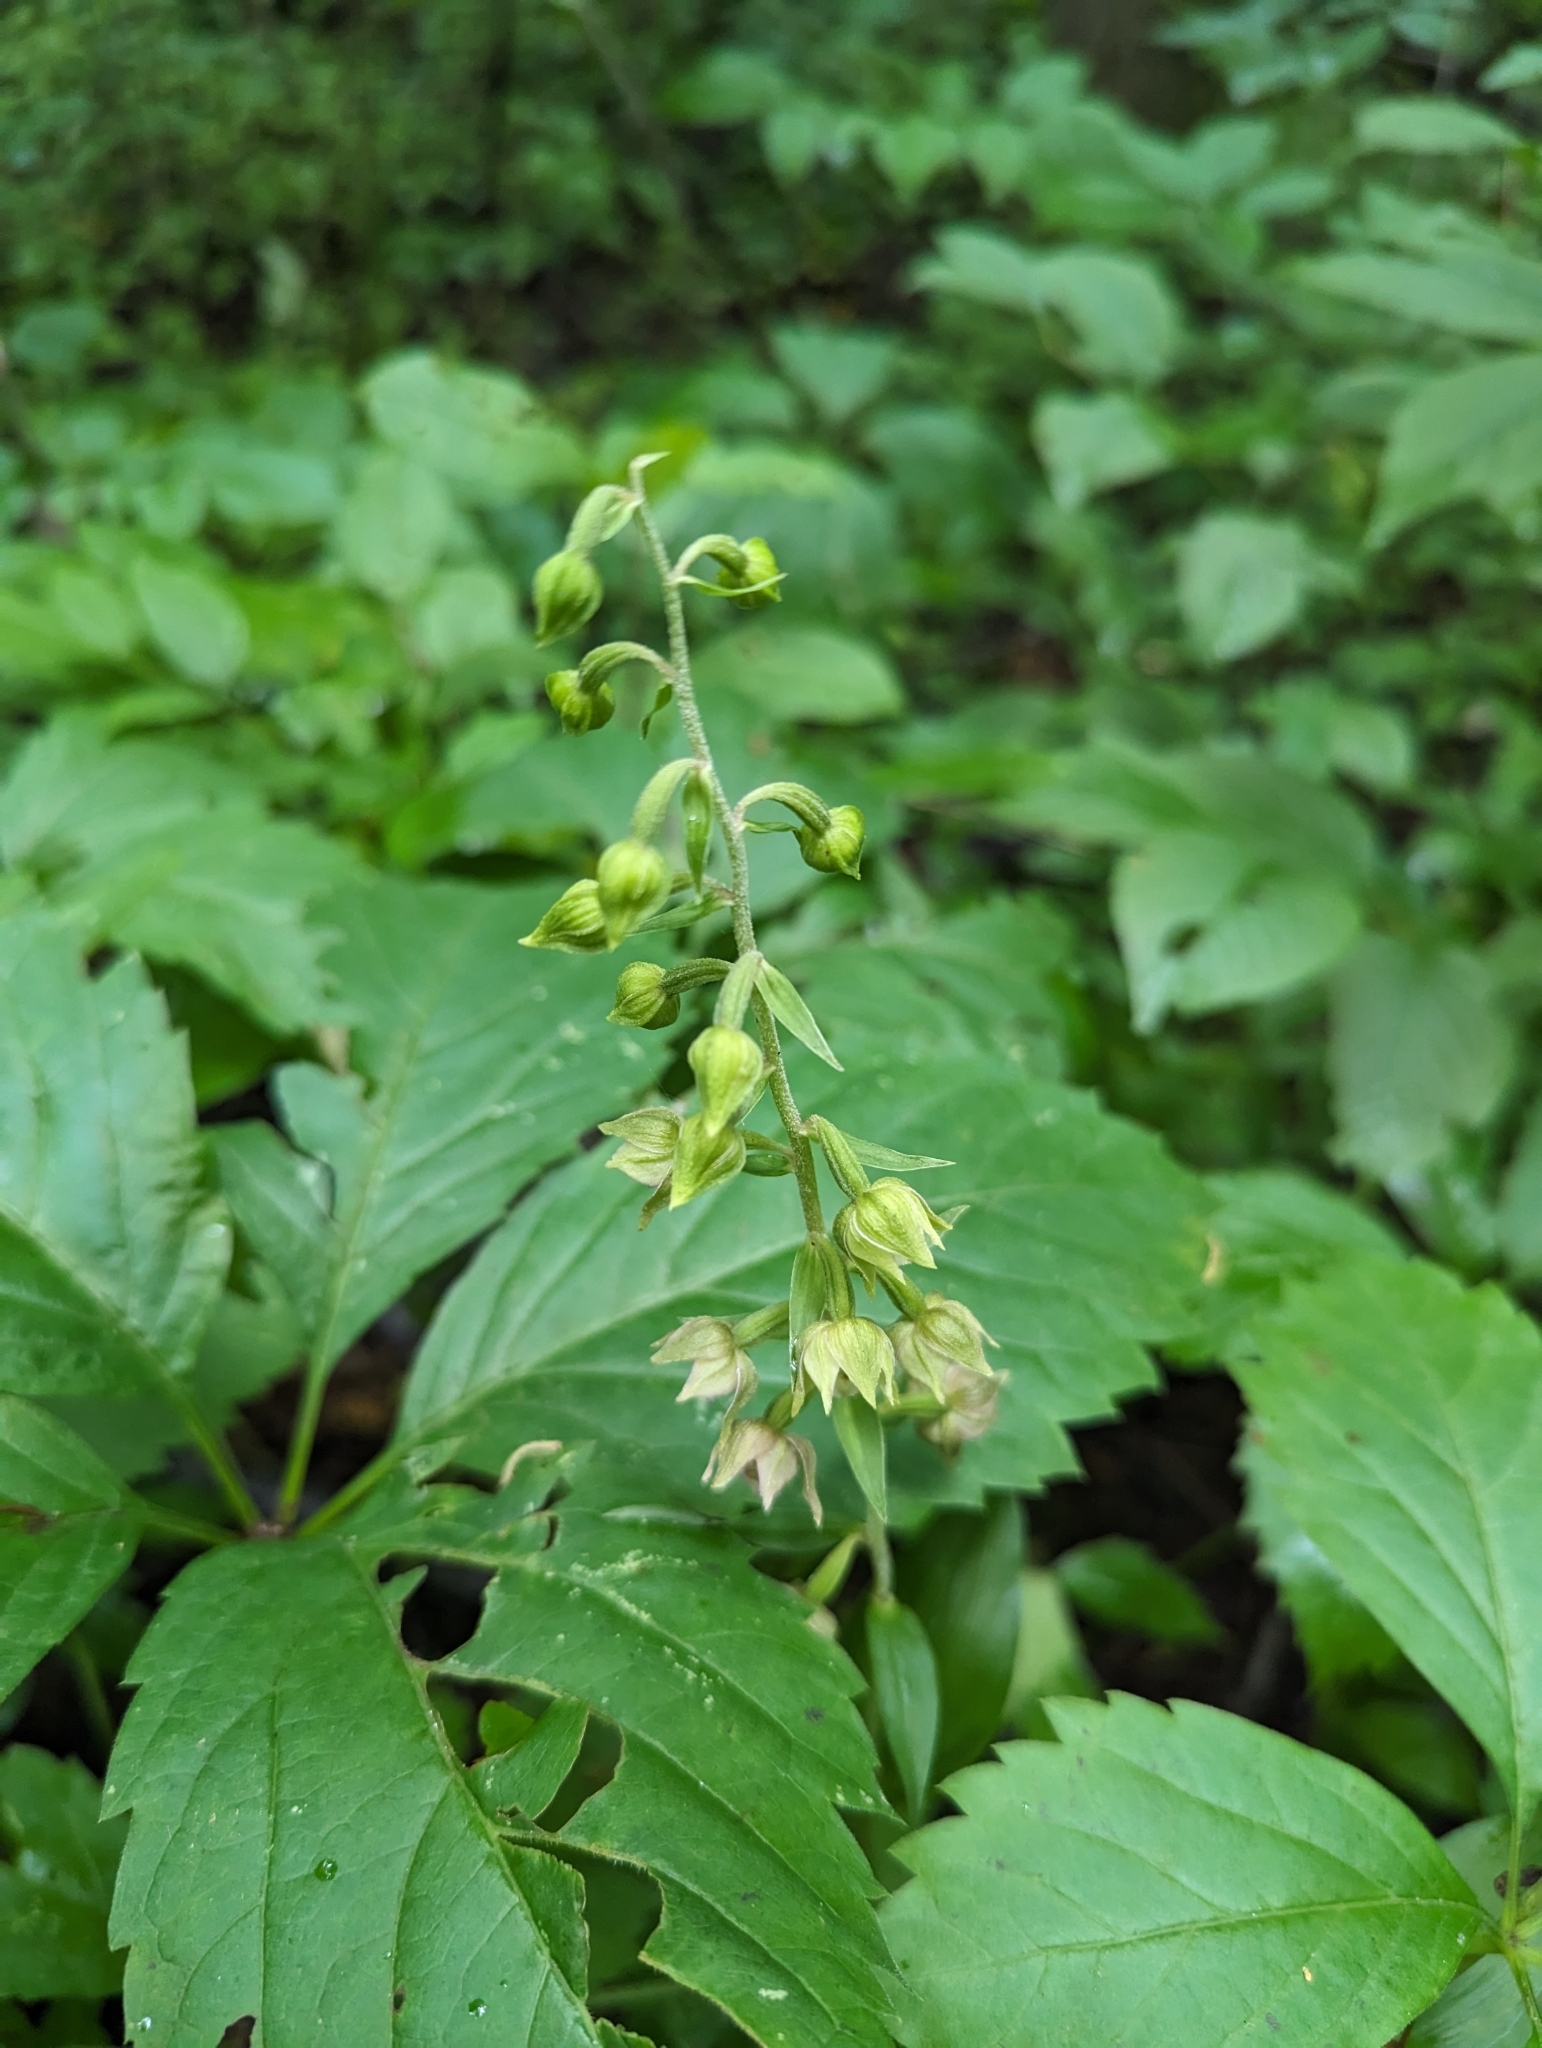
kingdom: Plantae
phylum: Tracheophyta
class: Liliopsida
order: Asparagales
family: Orchidaceae
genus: Epipactis
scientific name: Epipactis helleborine
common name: Broad-leaved helleborine
